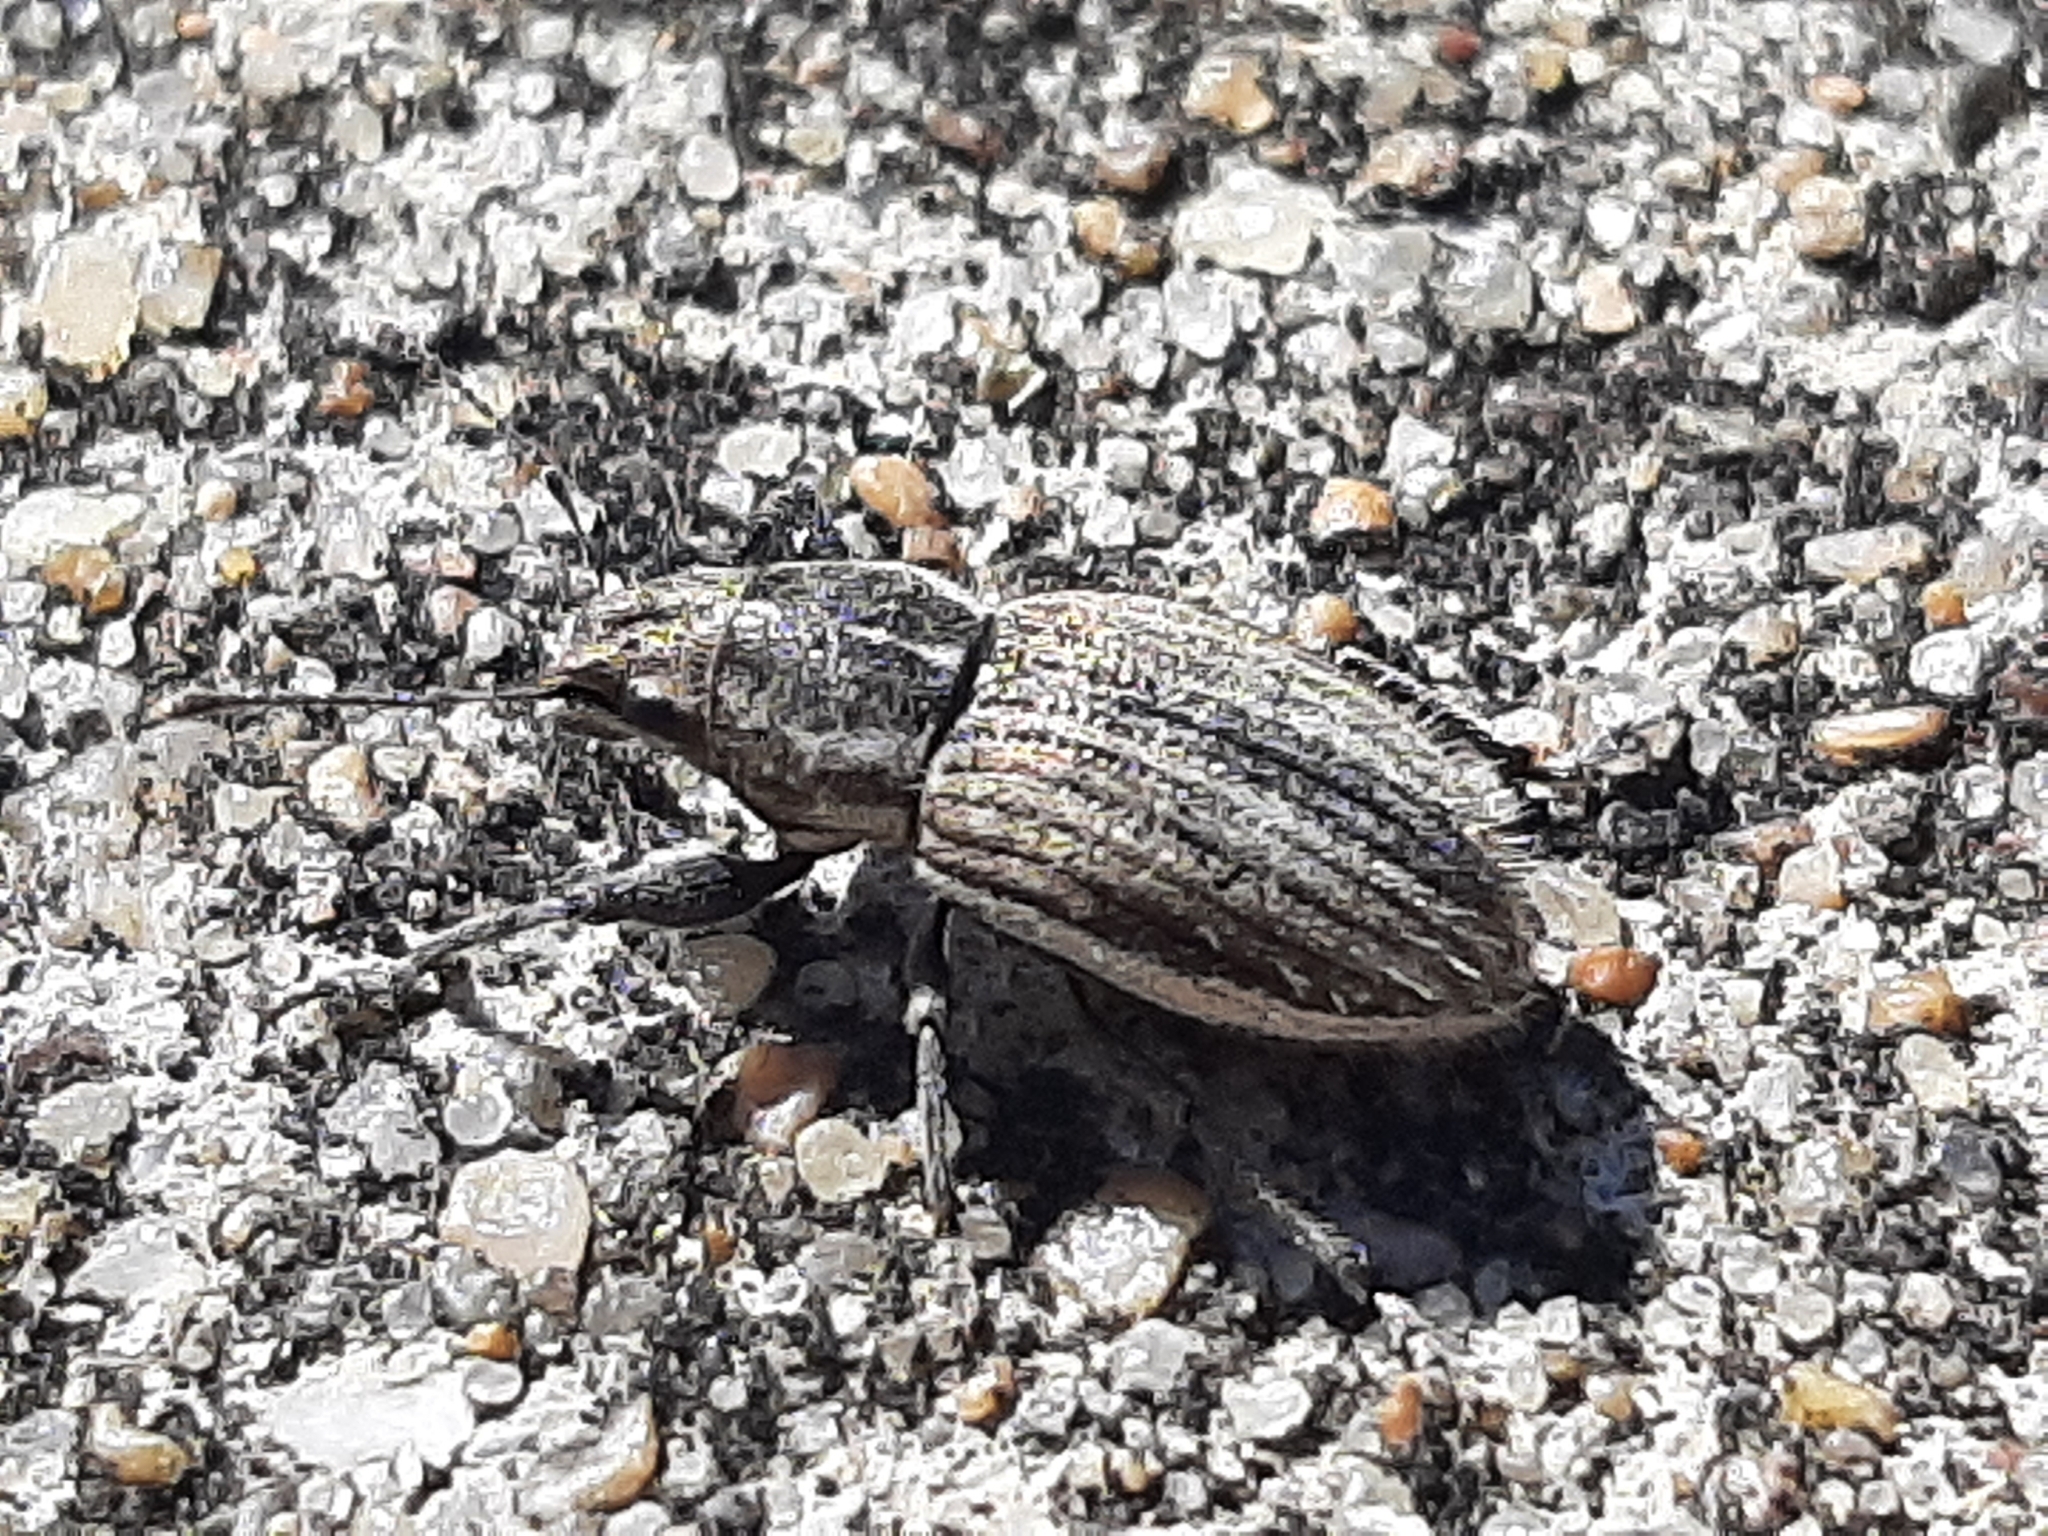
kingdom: Animalia
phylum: Arthropoda
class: Insecta
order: Coleoptera
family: Curculionidae
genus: Naupactus
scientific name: Naupactus leucoloma
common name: Whitefringed beetle
